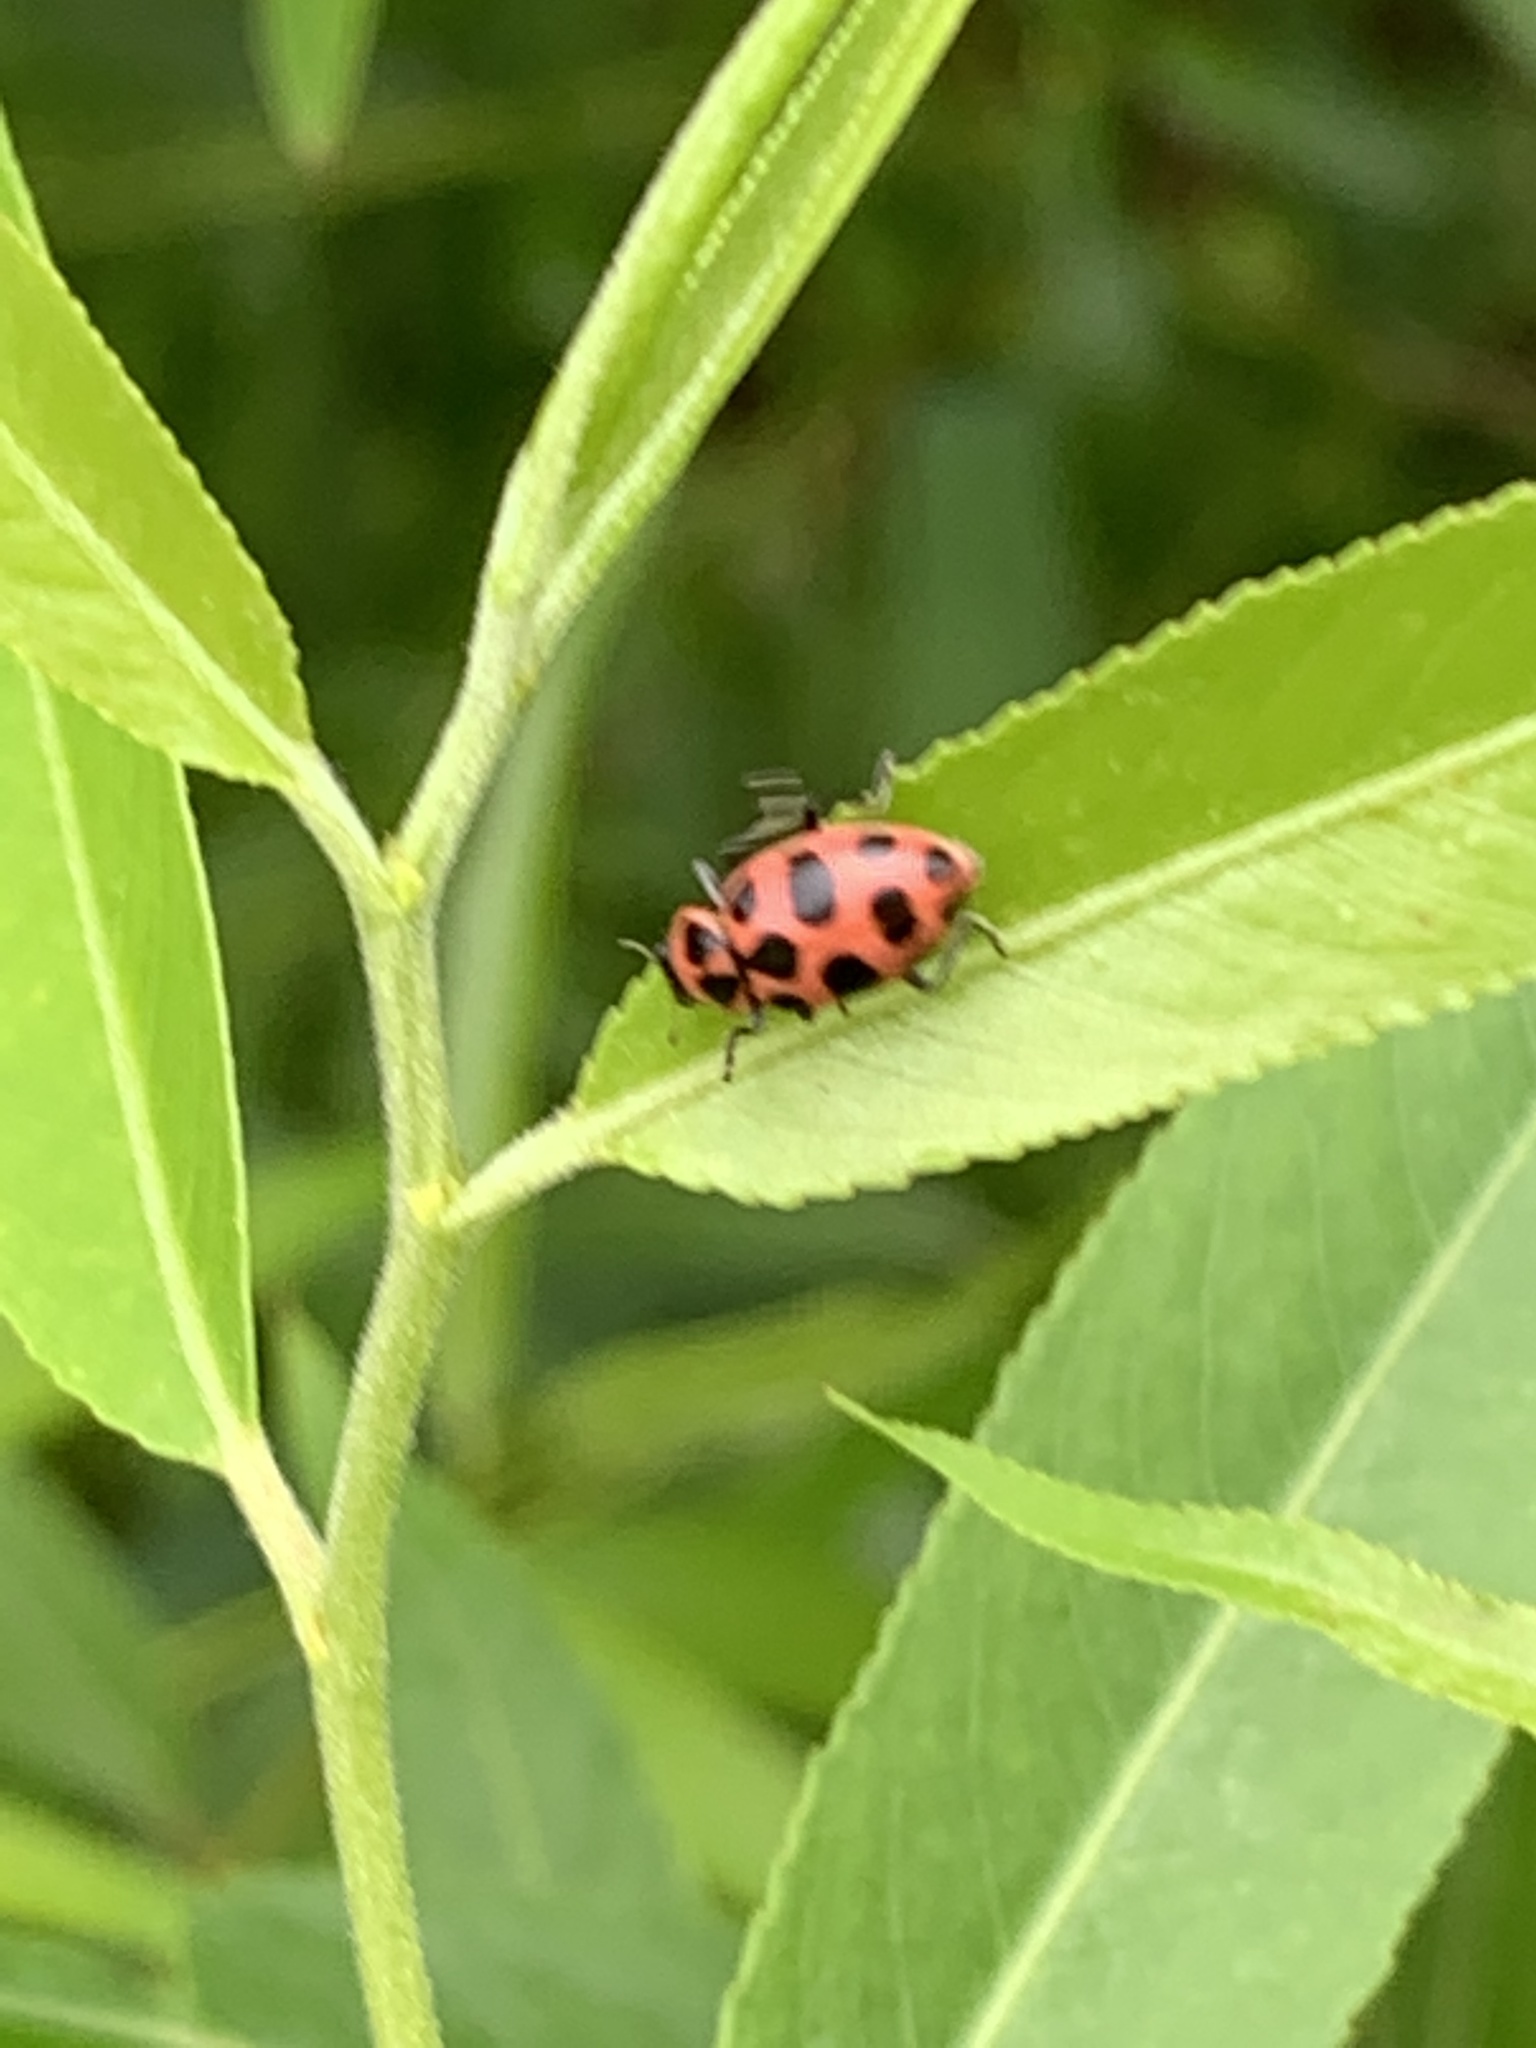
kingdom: Animalia
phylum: Arthropoda
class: Insecta
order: Coleoptera
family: Coccinellidae
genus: Coleomegilla
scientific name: Coleomegilla maculata
